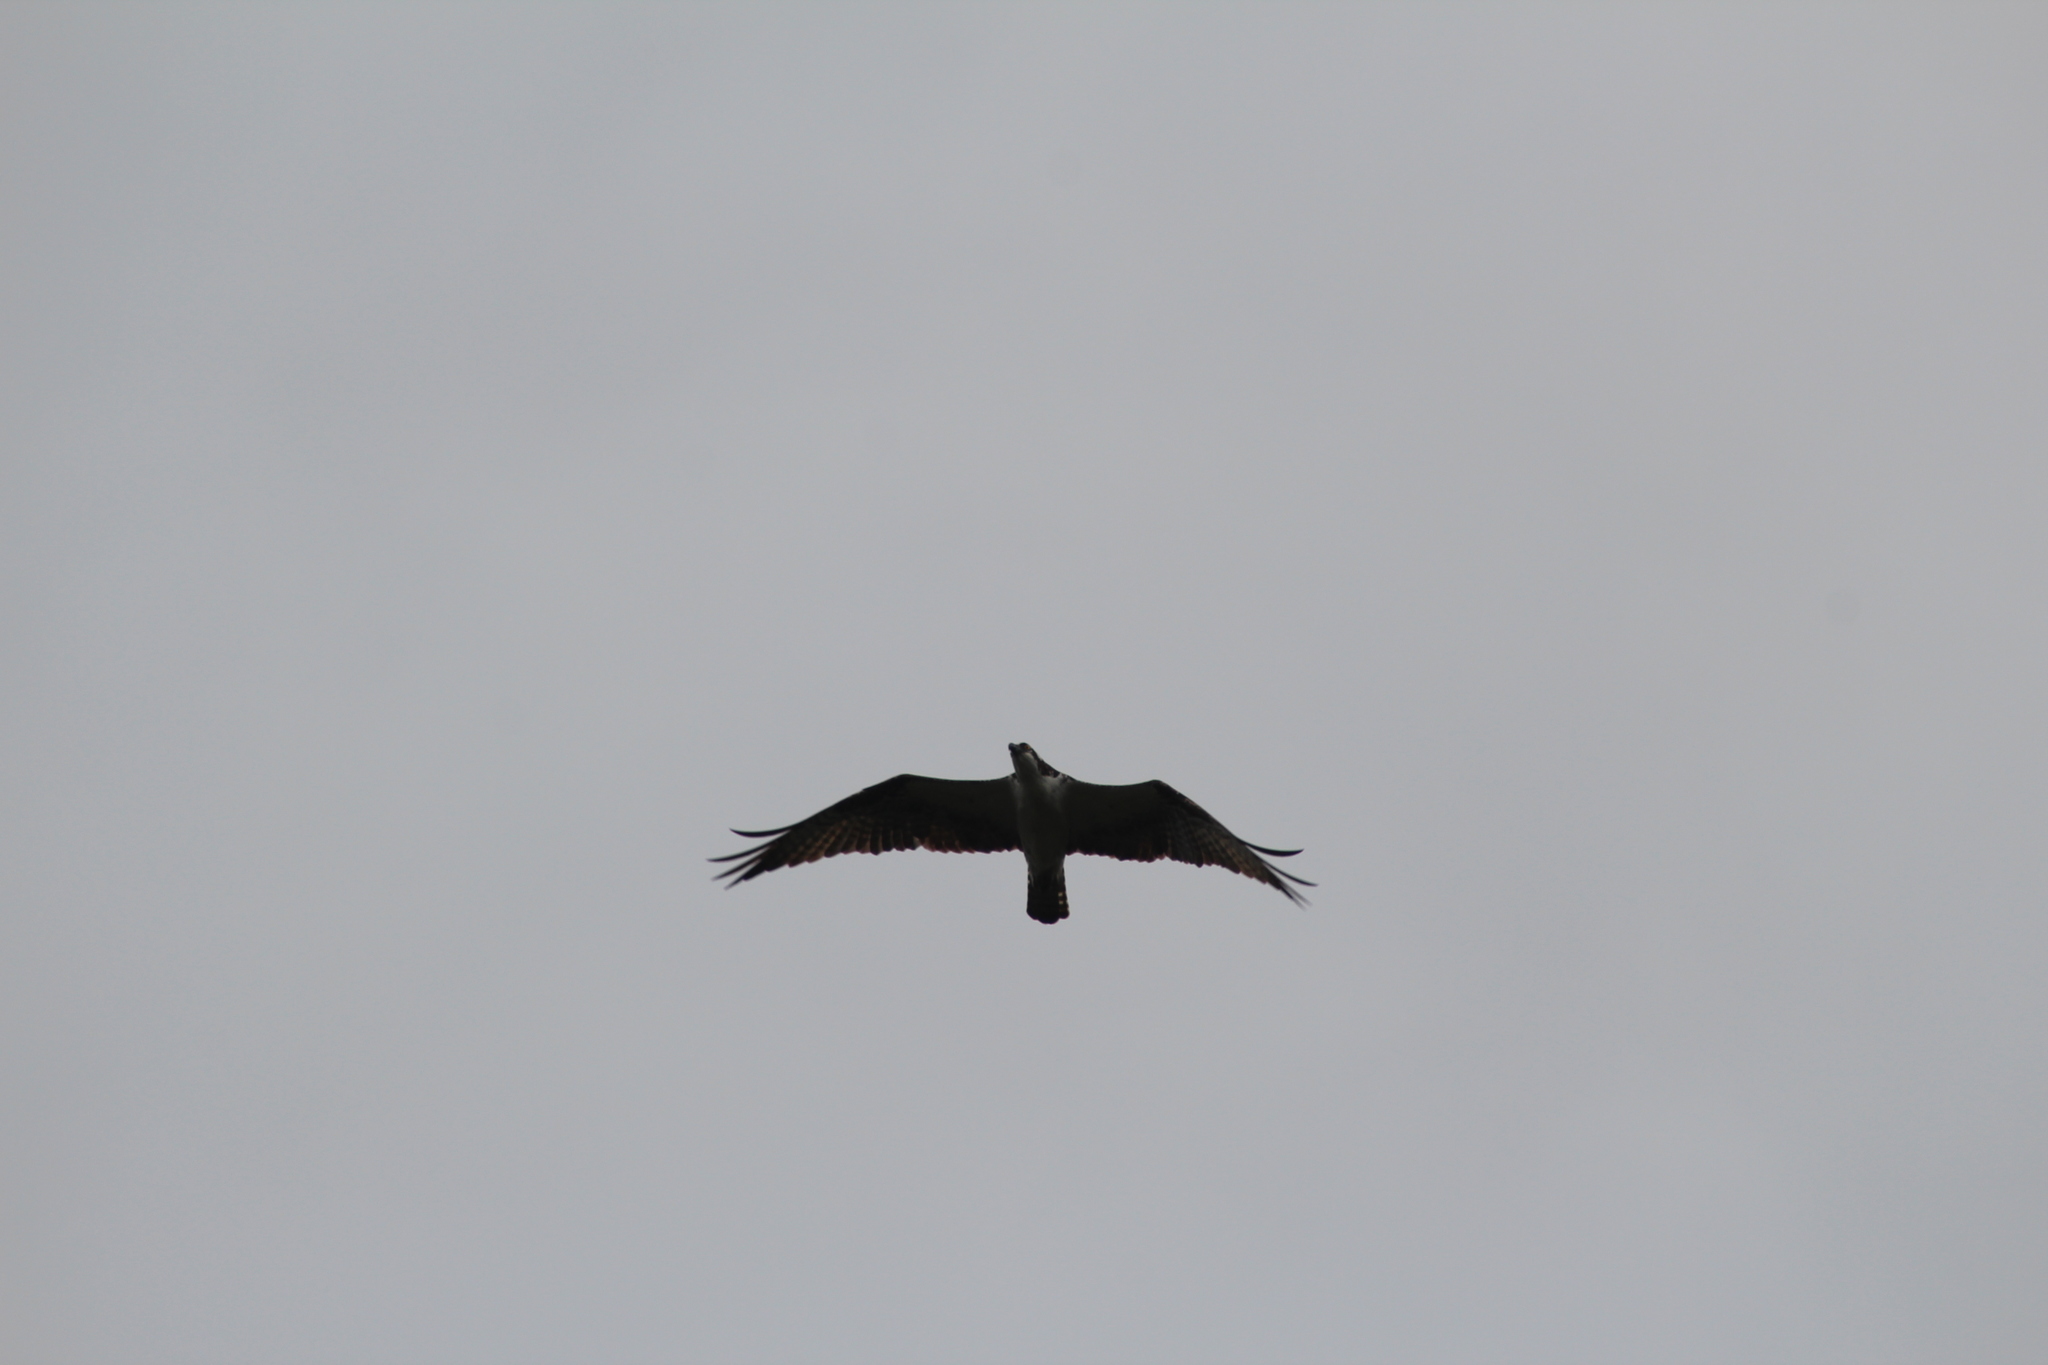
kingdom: Animalia
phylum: Chordata
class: Aves
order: Accipitriformes
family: Pandionidae
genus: Pandion
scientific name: Pandion haliaetus
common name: Osprey
